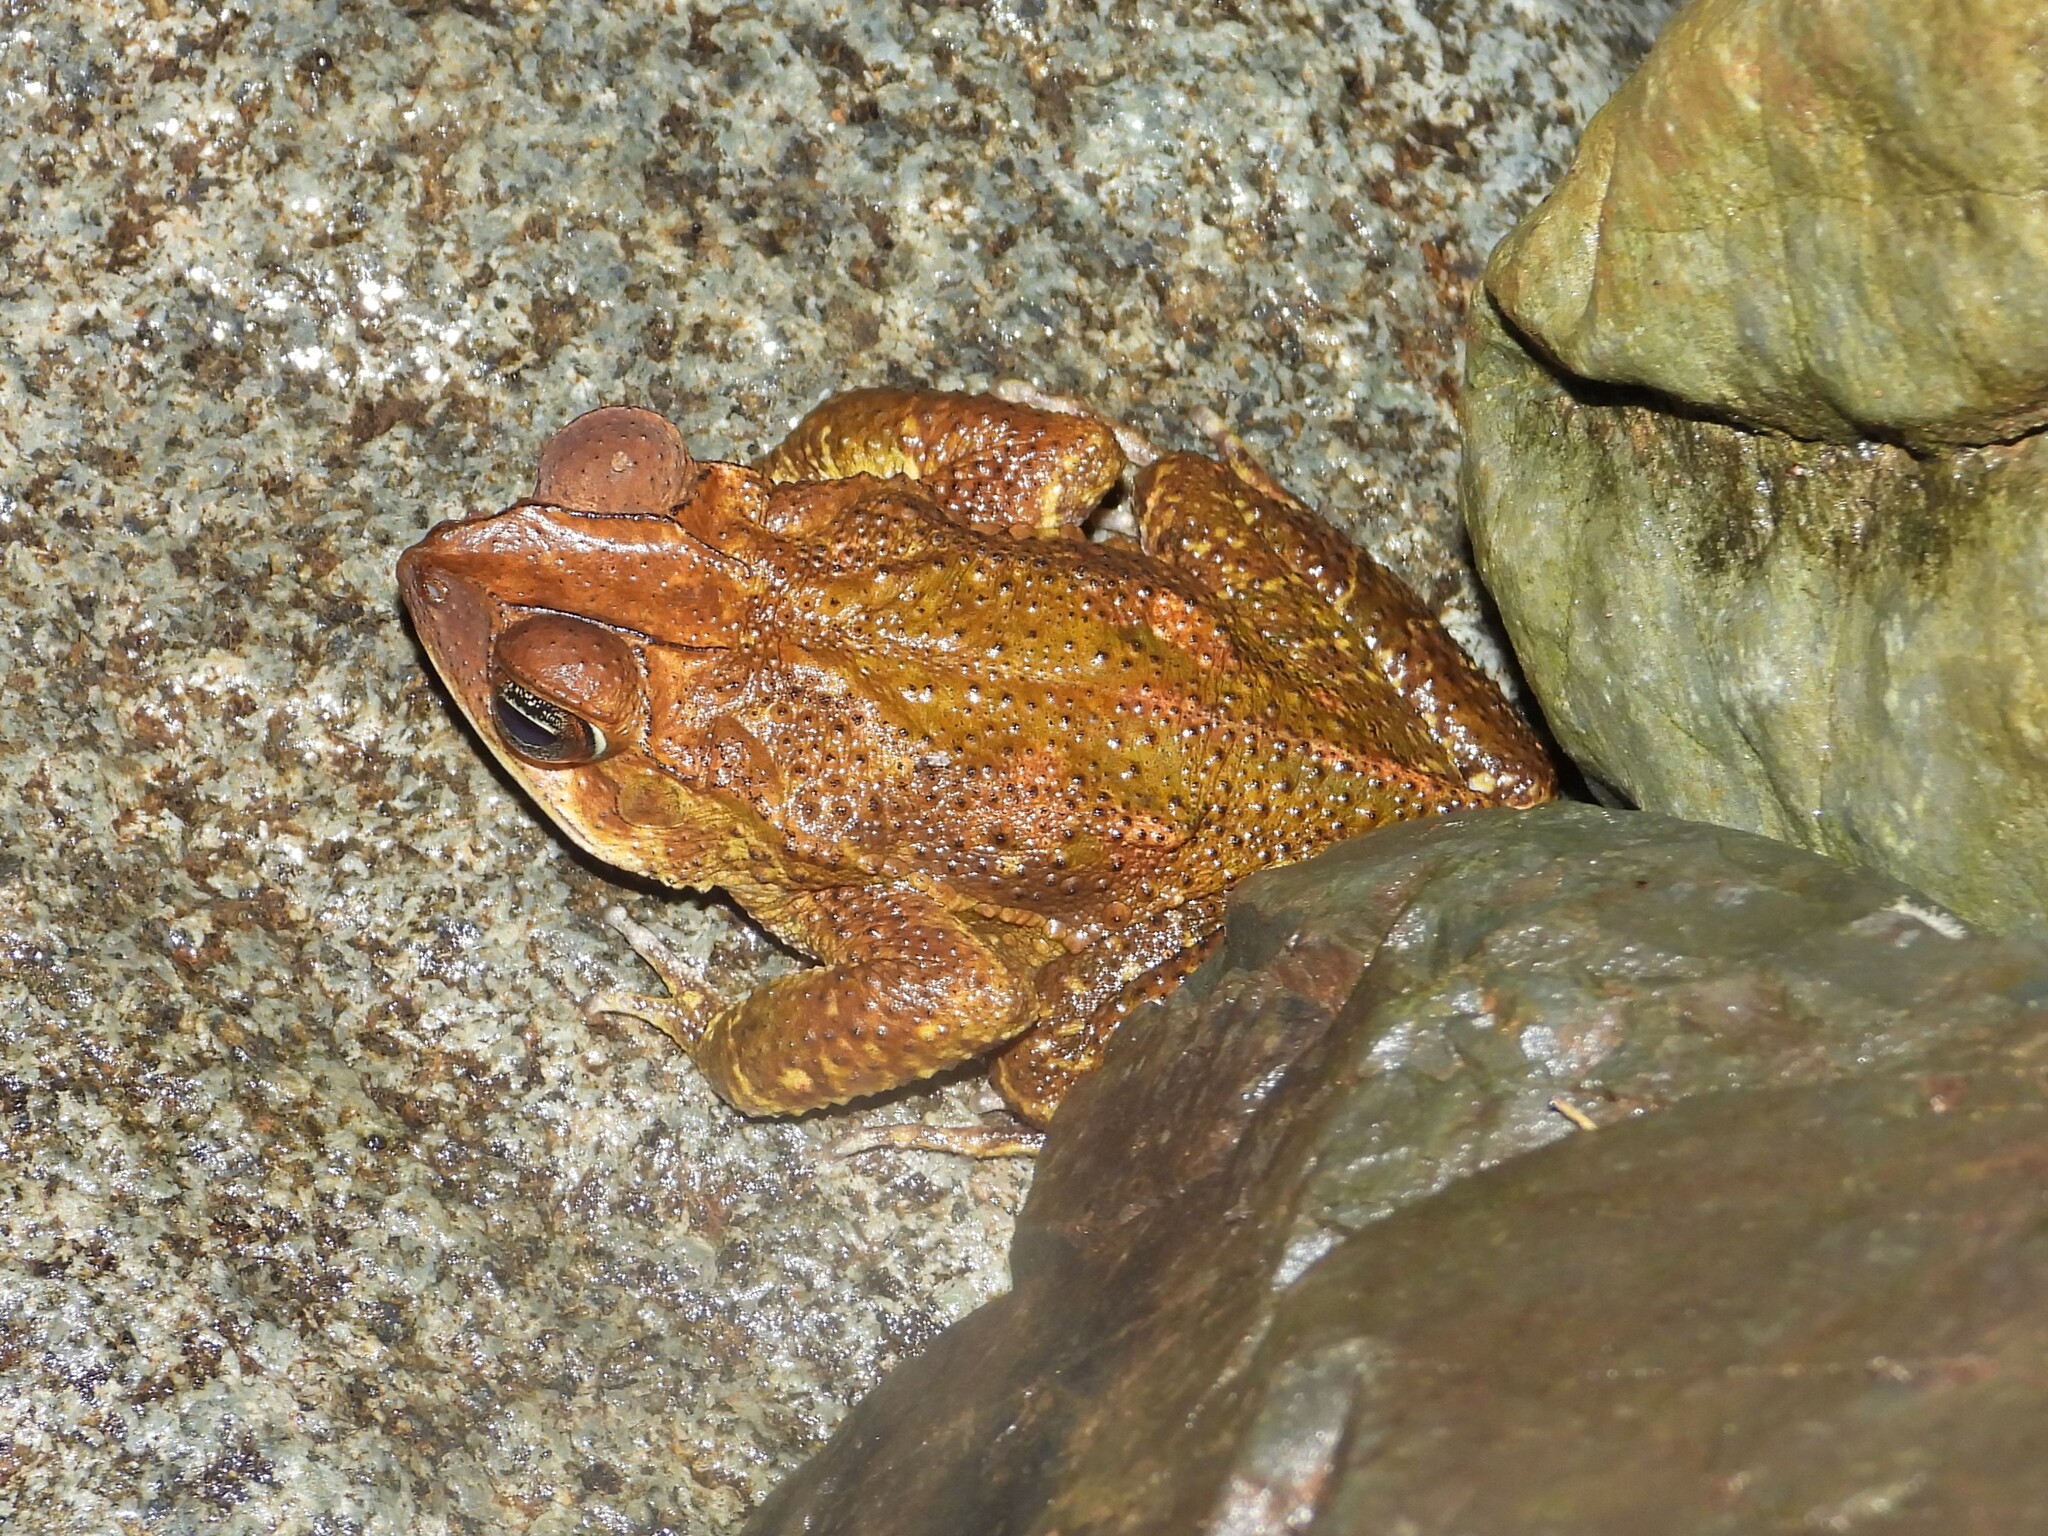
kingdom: Animalia
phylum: Chordata
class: Amphibia
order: Anura
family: Bufonidae
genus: Incilius
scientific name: Incilius aucoinae
